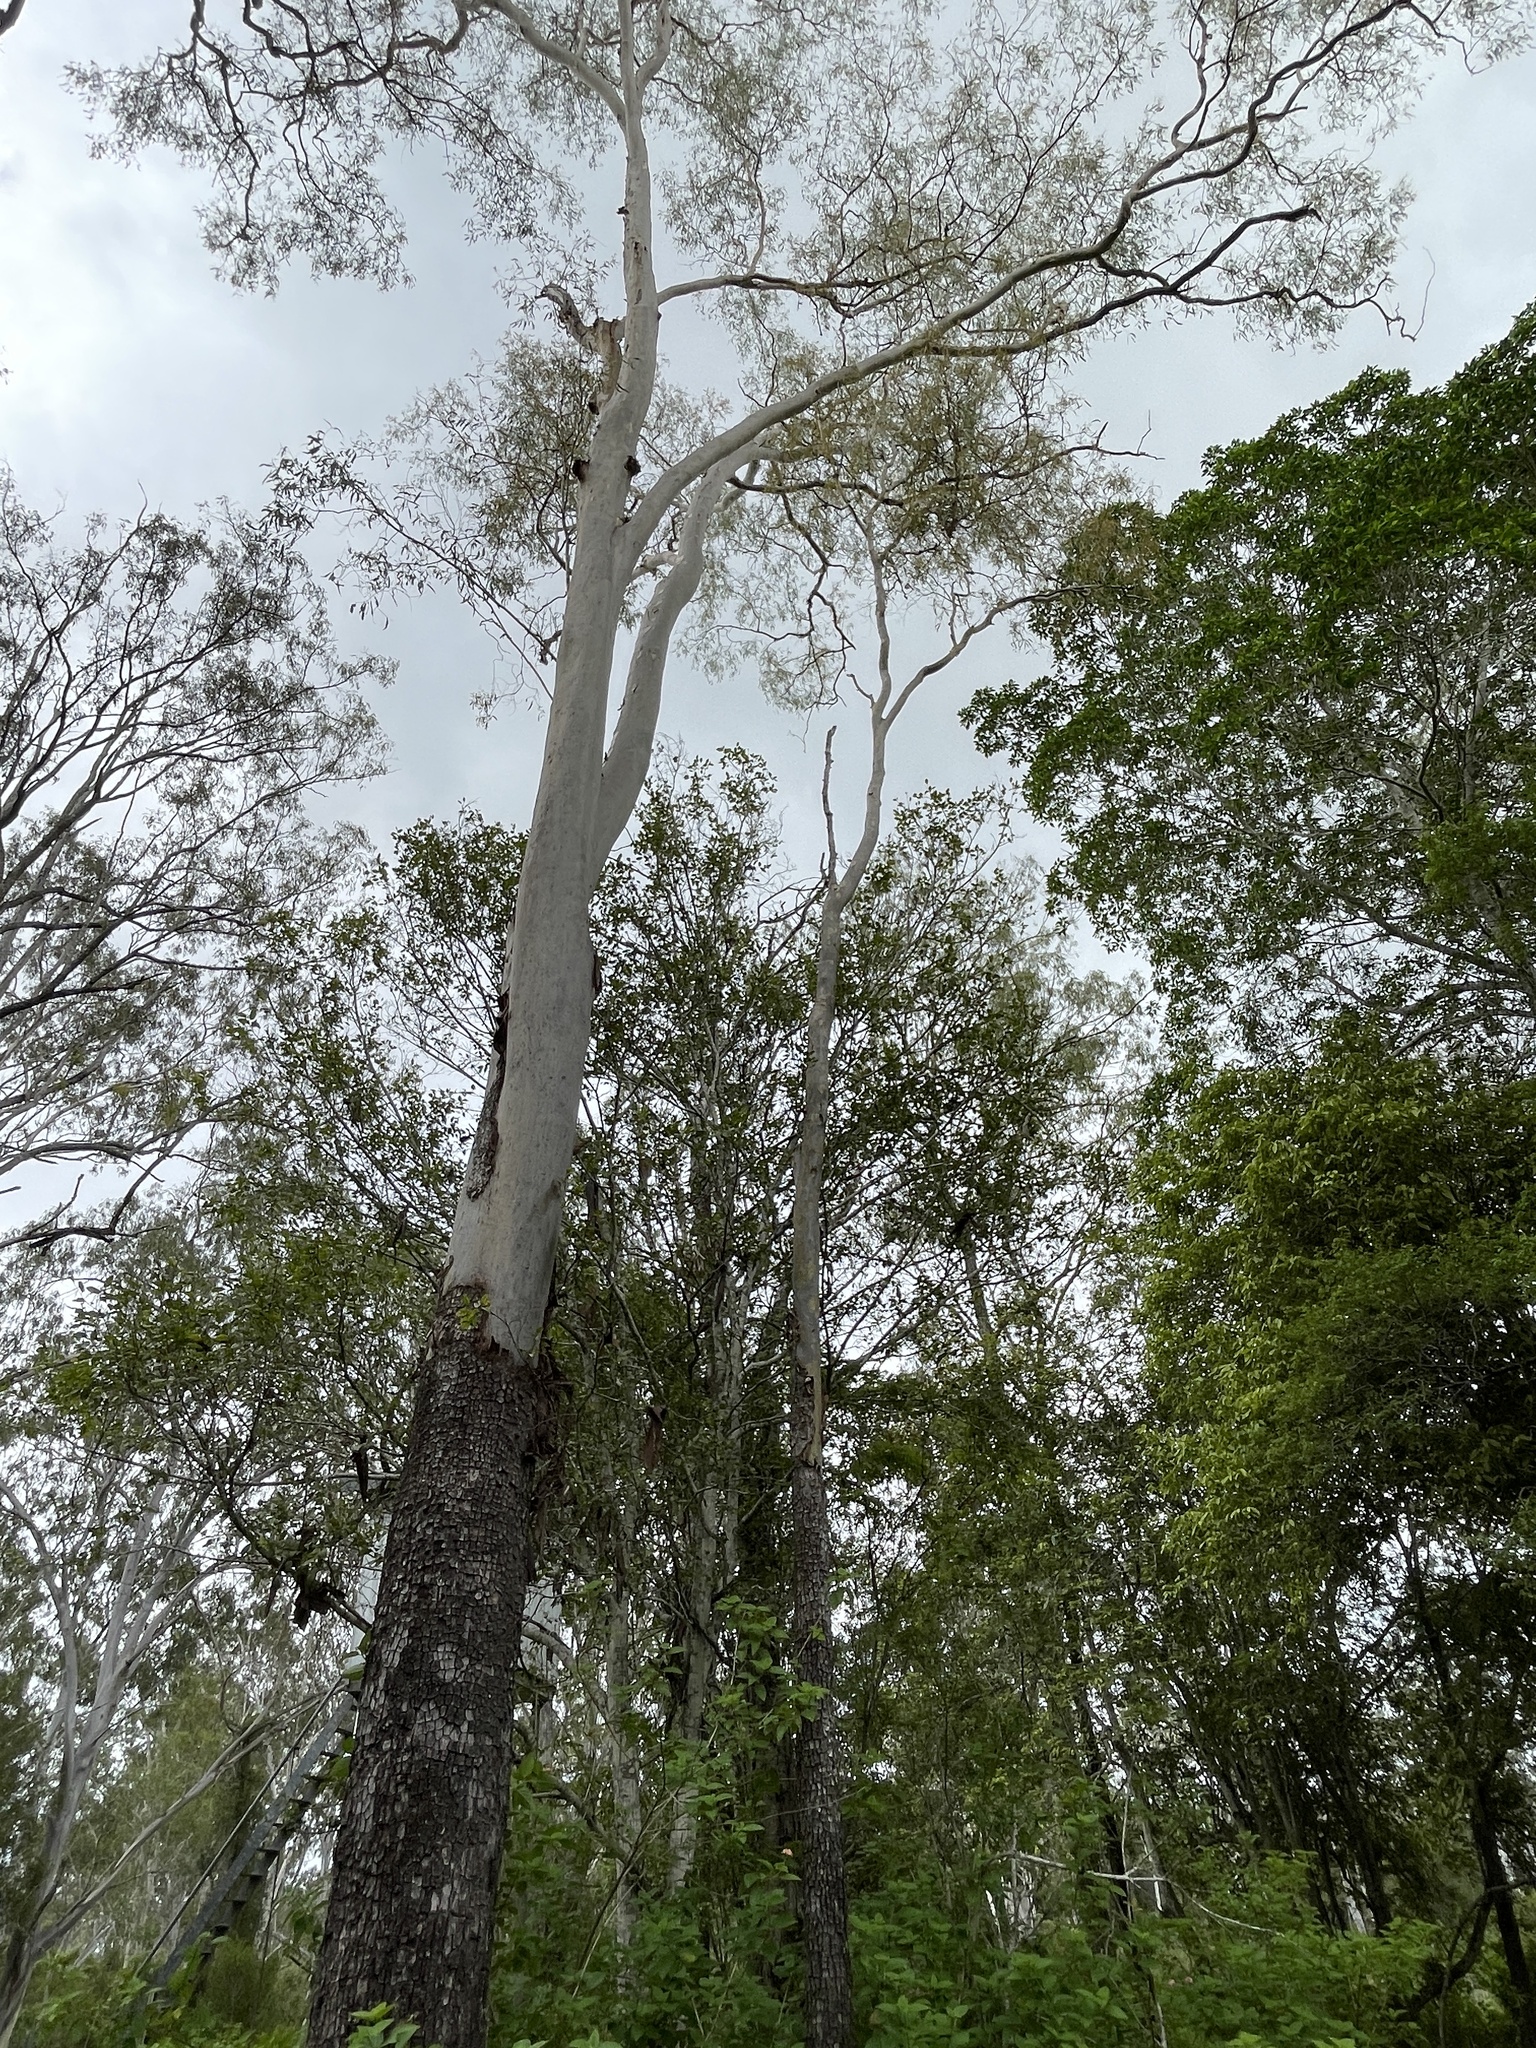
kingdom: Plantae
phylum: Tracheophyta
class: Magnoliopsida
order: Myrtales
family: Myrtaceae
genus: Corymbia
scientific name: Corymbia tessellaris
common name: Carbeen
